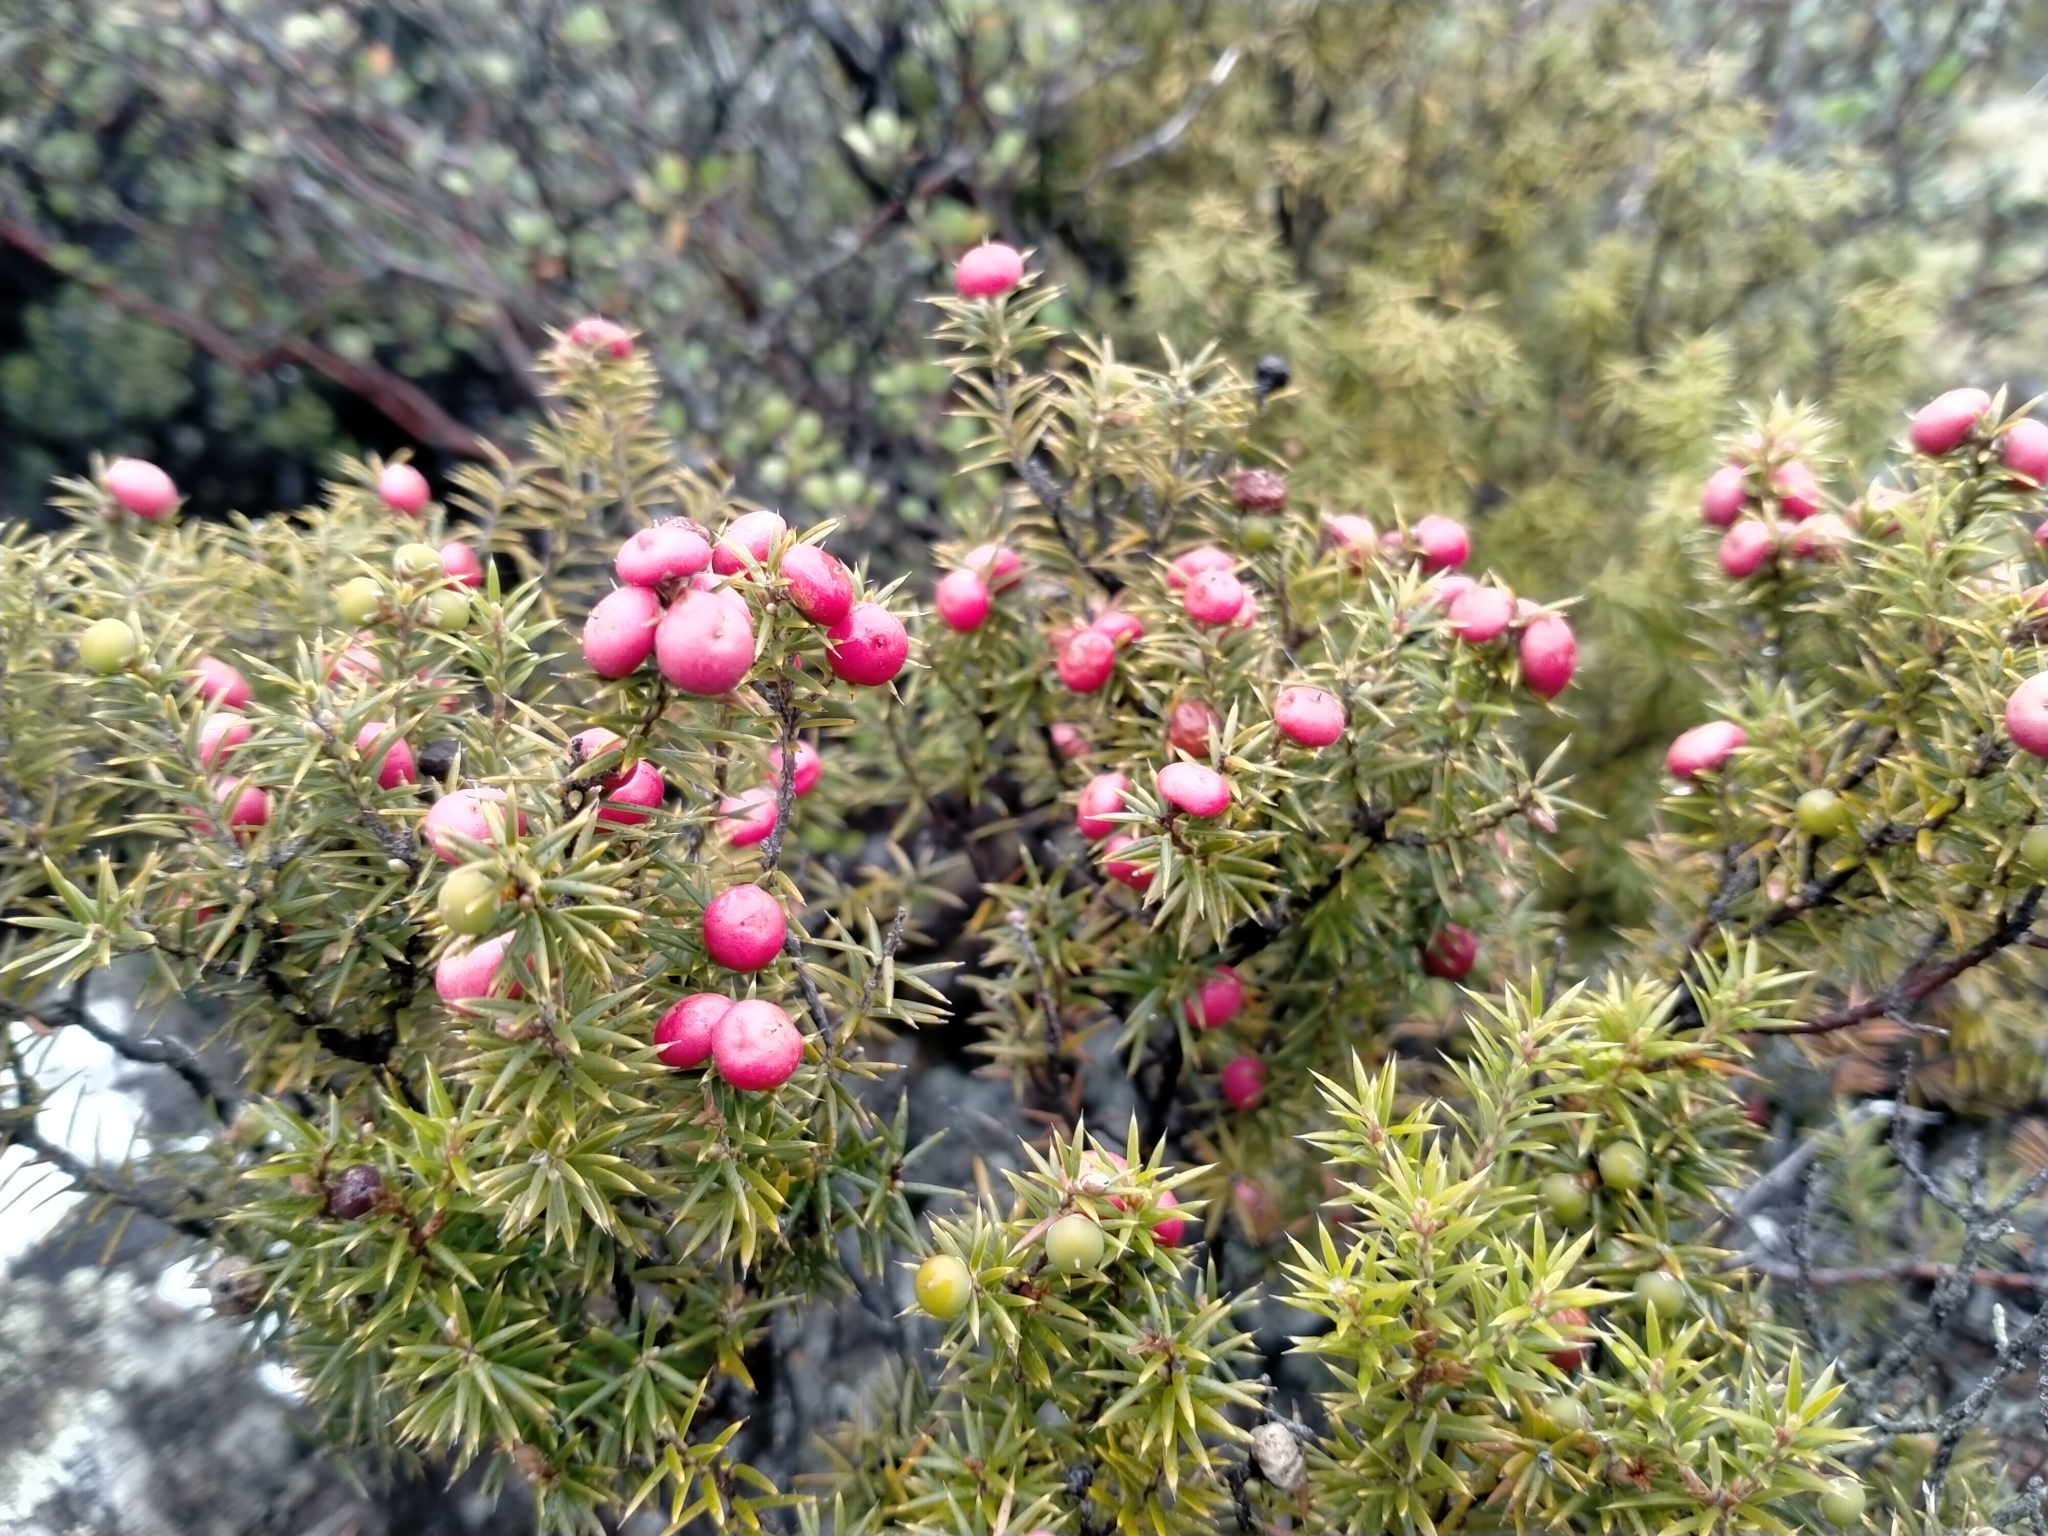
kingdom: Plantae
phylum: Tracheophyta
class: Magnoliopsida
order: Ericales
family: Ericaceae
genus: Leptecophylla
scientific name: Leptecophylla juniperina
